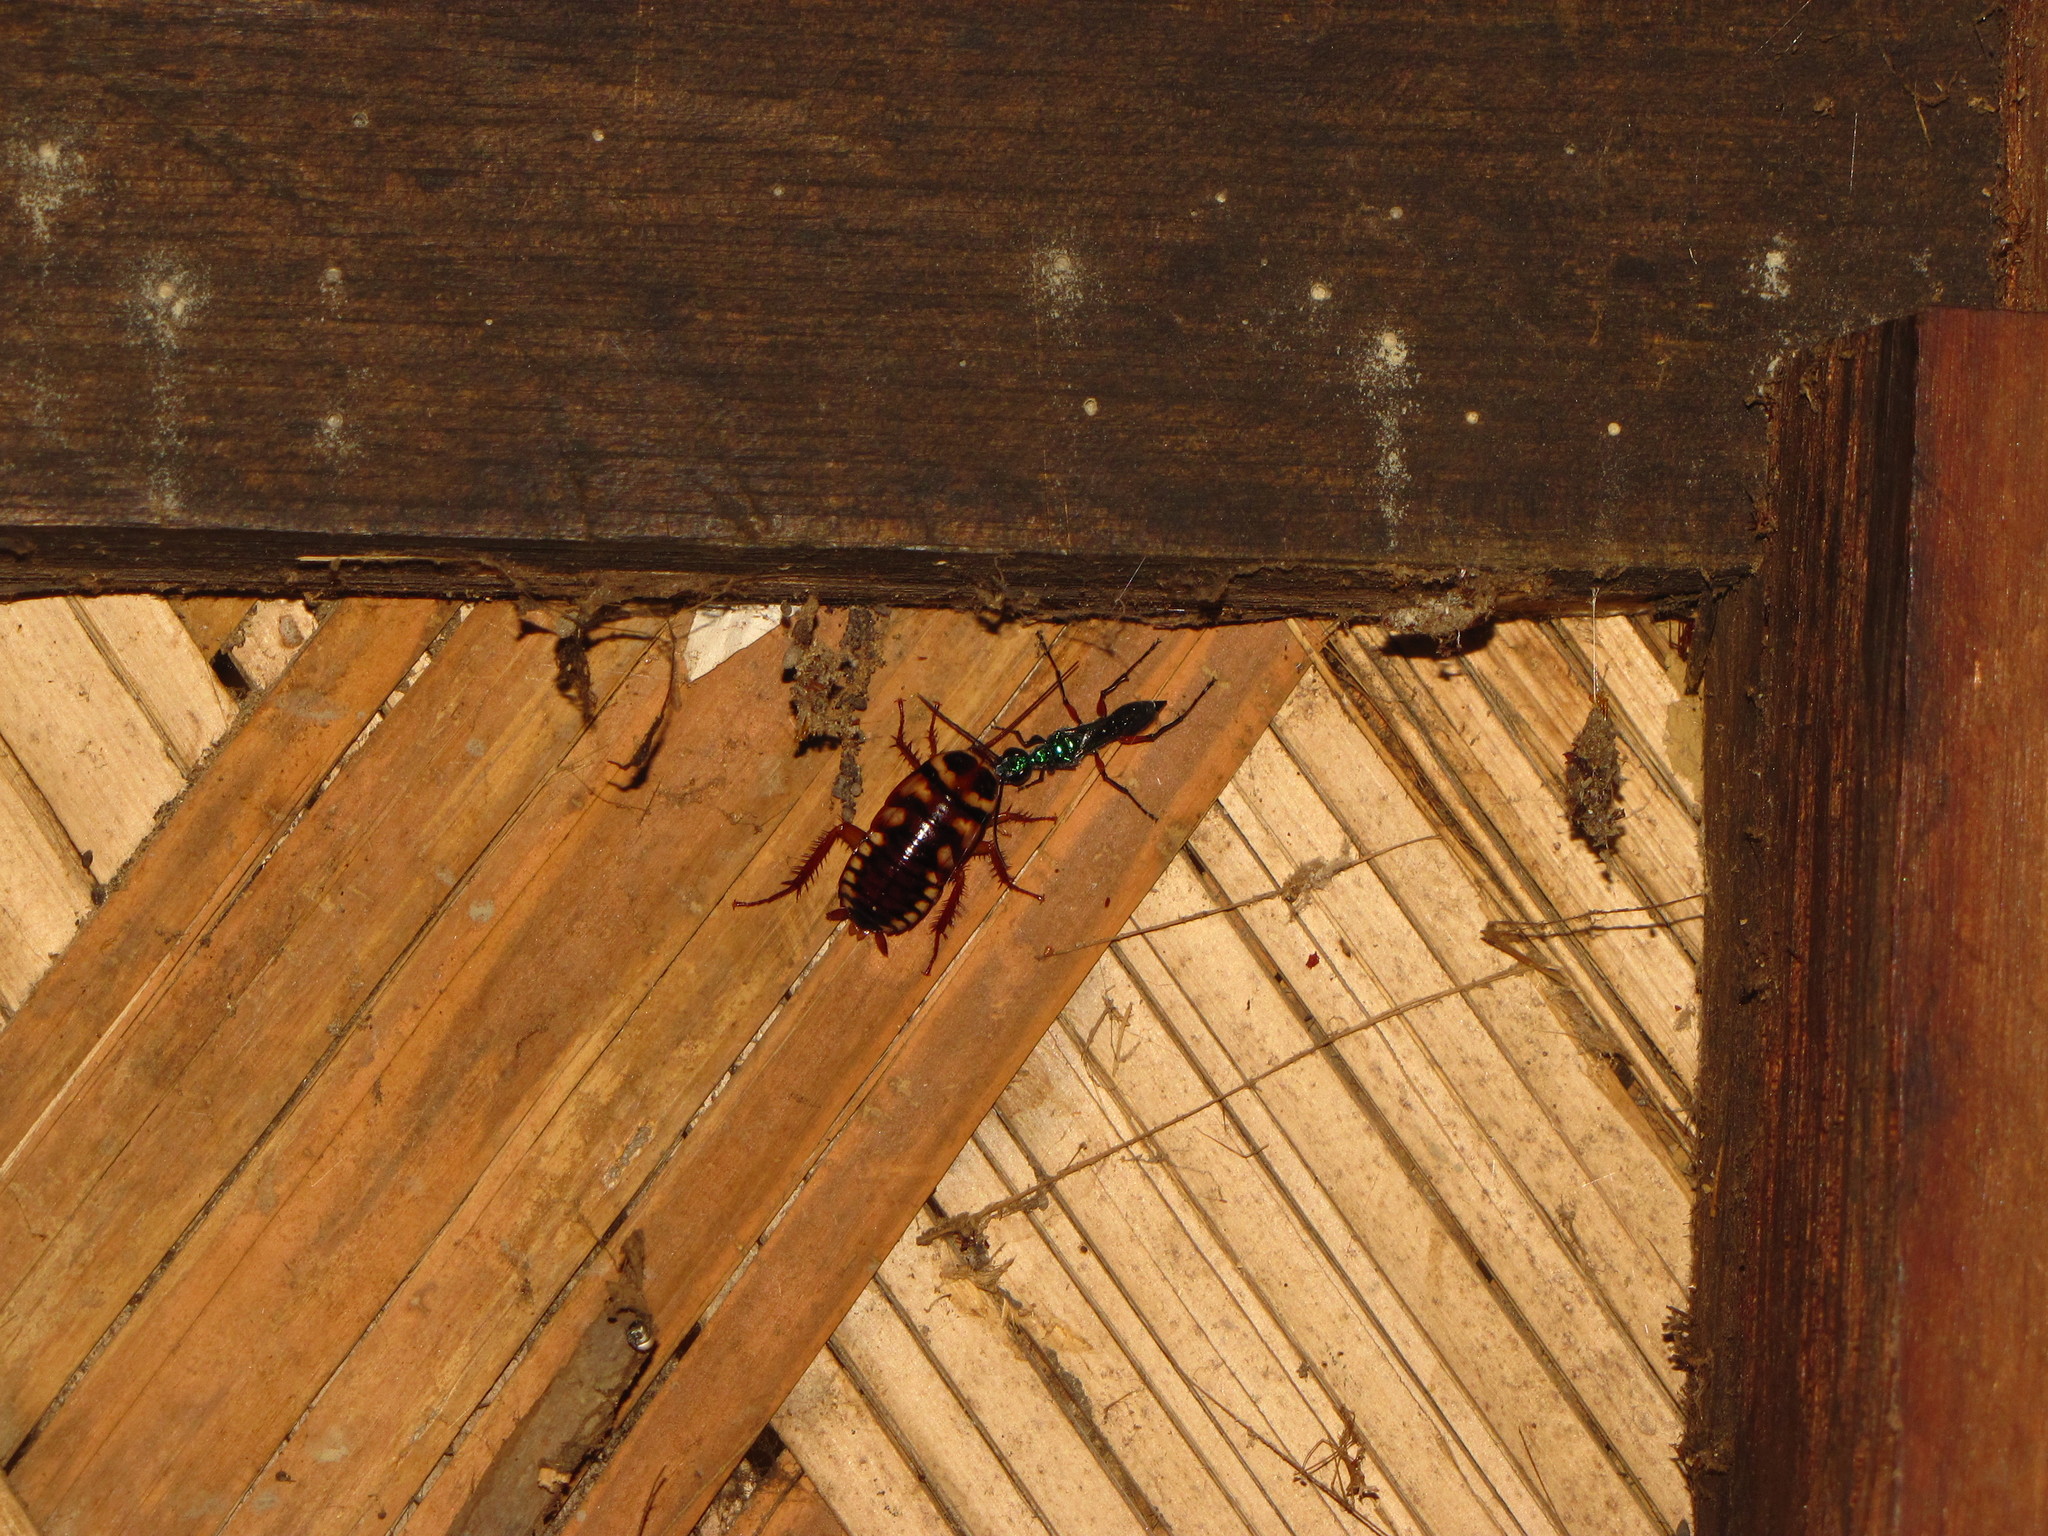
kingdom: Animalia
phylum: Arthropoda
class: Insecta
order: Blattodea
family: Blattidae
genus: Periplaneta
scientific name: Periplaneta australasiae
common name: Australian cockroach
